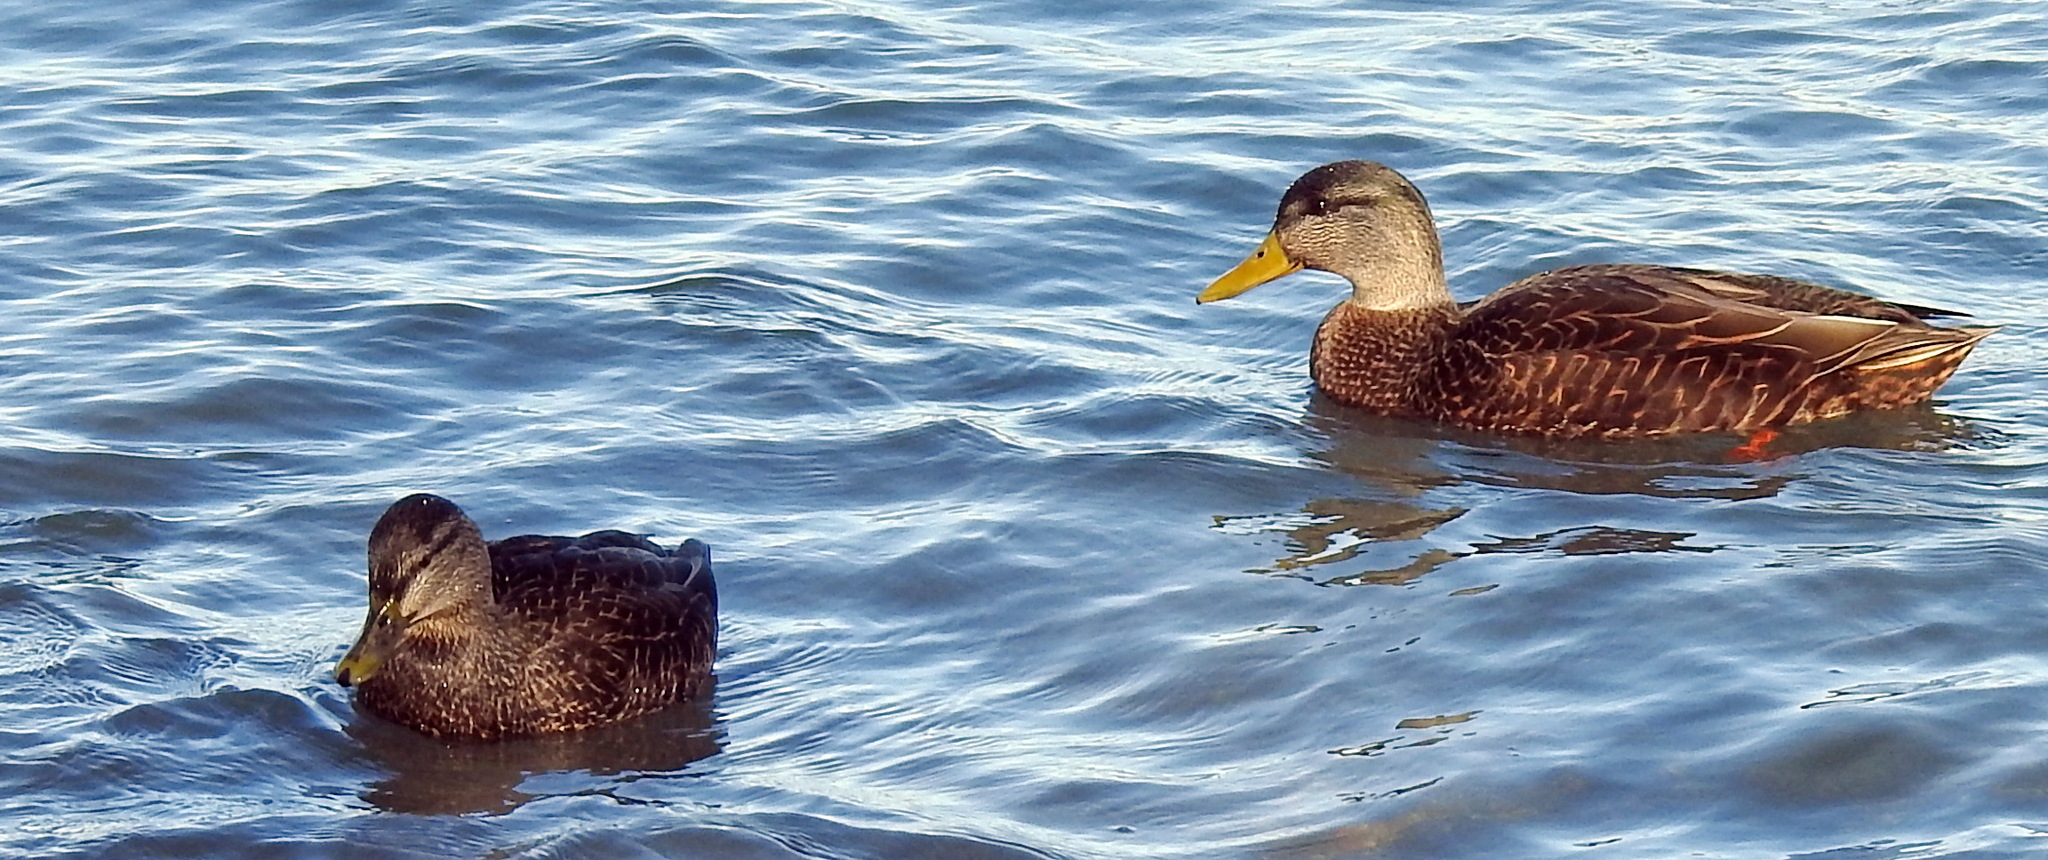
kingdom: Animalia
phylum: Chordata
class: Aves
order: Anseriformes
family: Anatidae
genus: Anas
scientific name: Anas rubripes
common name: American black duck
